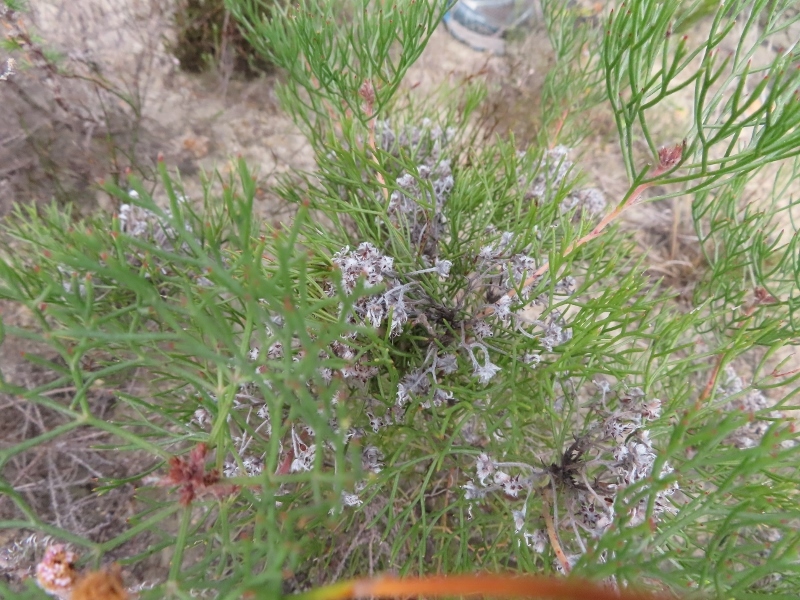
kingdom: Plantae
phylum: Tracheophyta
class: Magnoliopsida
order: Proteales
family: Proteaceae
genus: Serruria
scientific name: Serruria fasciflora
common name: Common pin spiderhead
